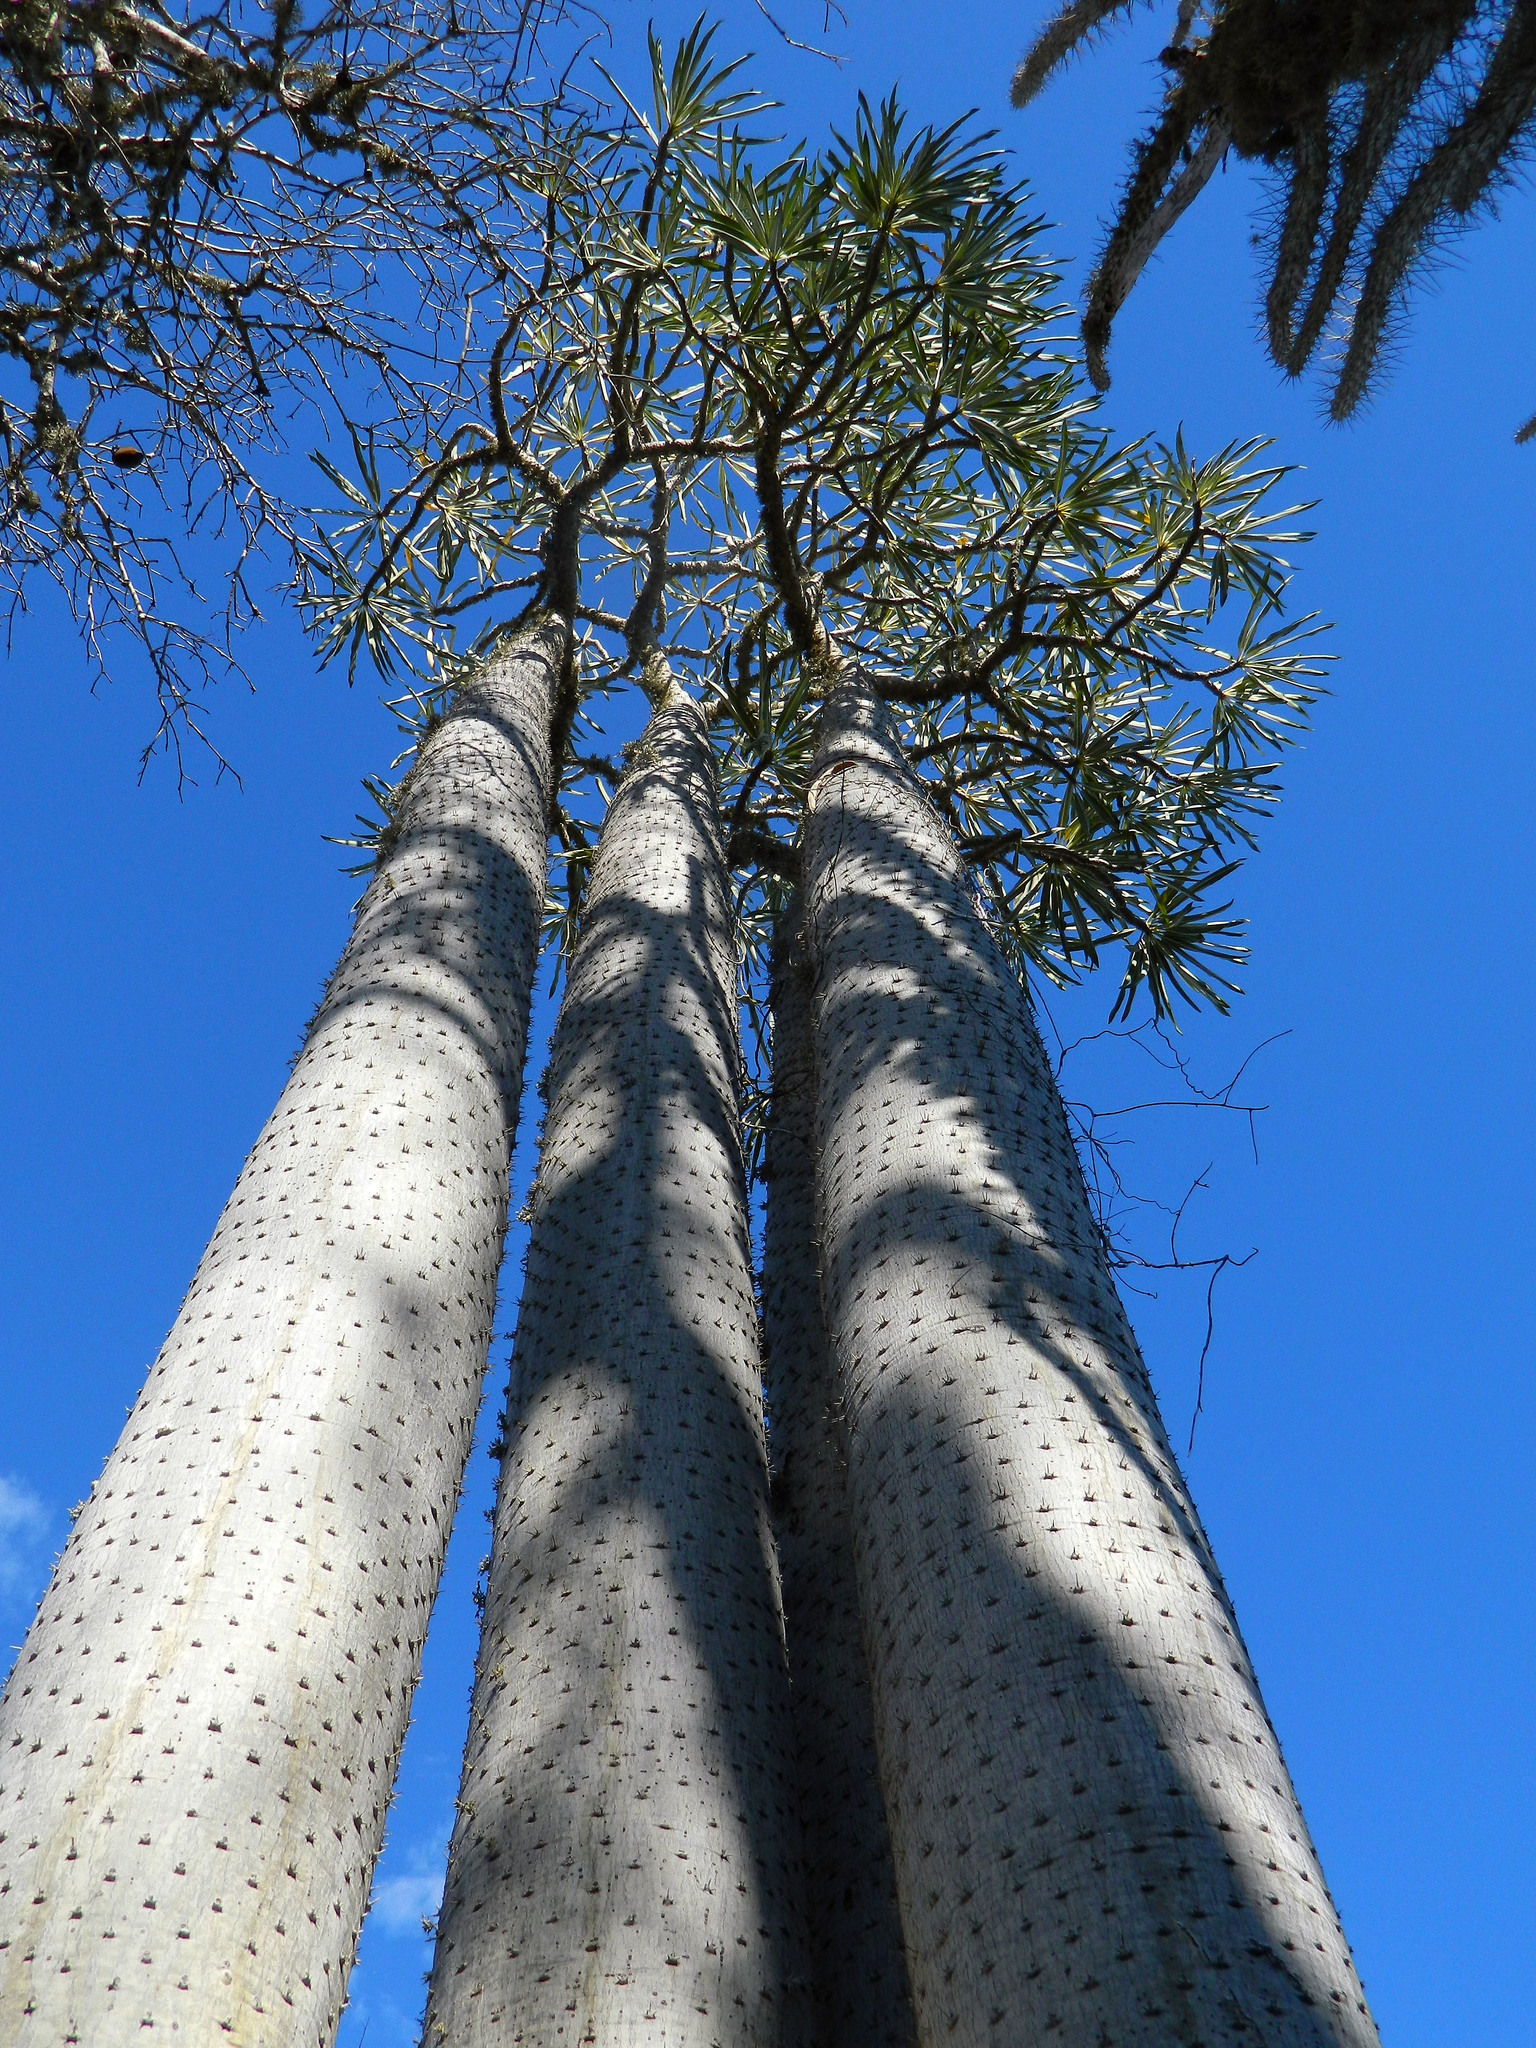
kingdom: Plantae
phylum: Tracheophyta
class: Magnoliopsida
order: Gentianales
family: Apocynaceae
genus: Pachypodium
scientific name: Pachypodium mikea
